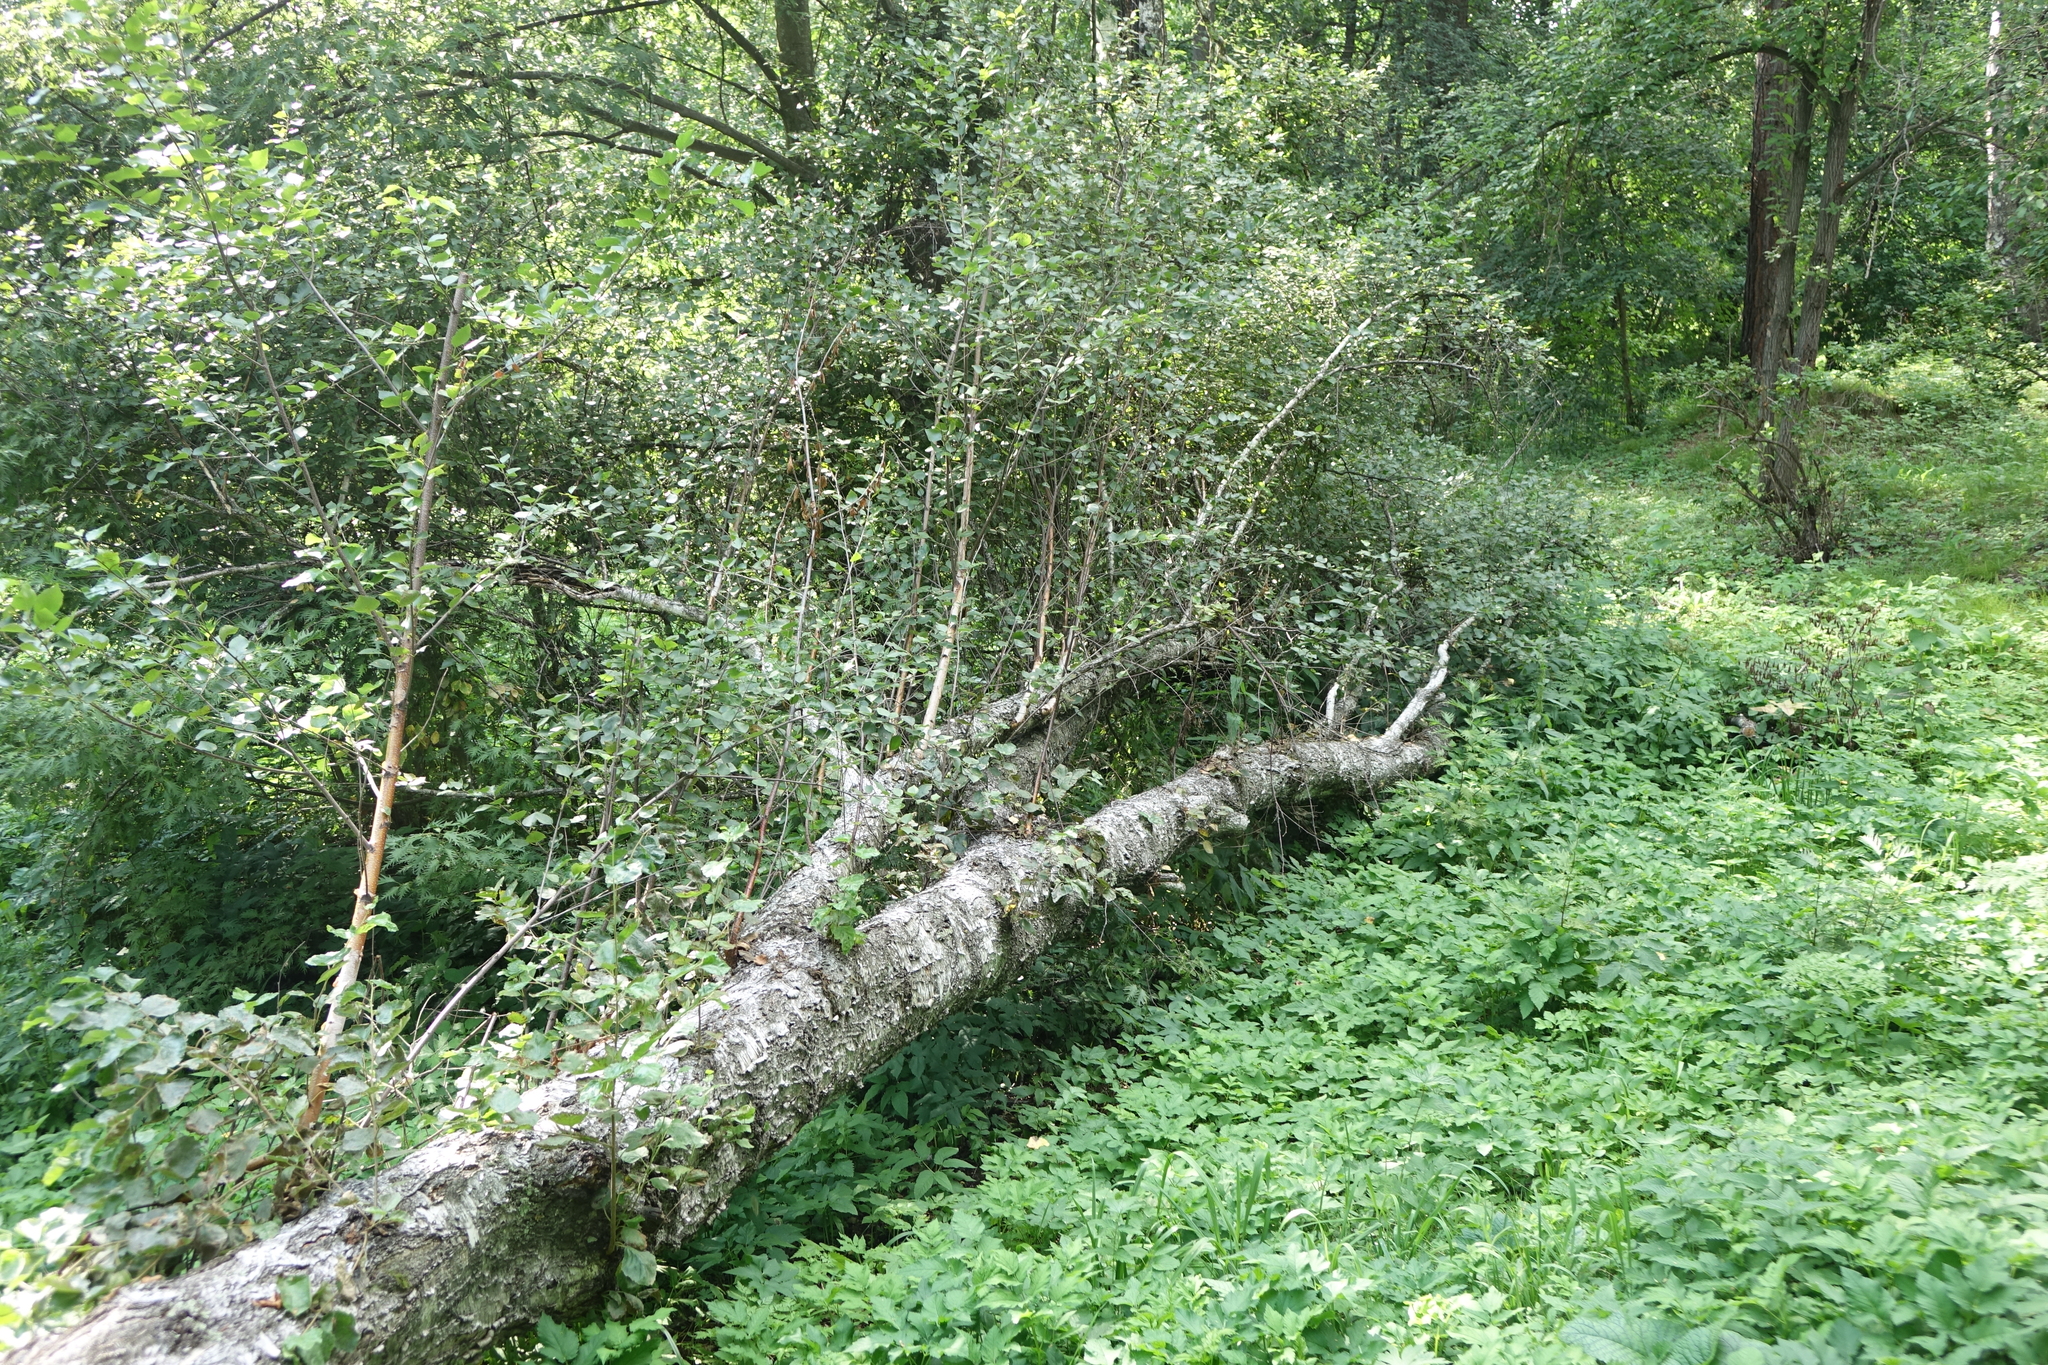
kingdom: Plantae
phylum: Tracheophyta
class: Magnoliopsida
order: Fagales
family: Betulaceae
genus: Betula
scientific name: Betula pubescens
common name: Downy birch
